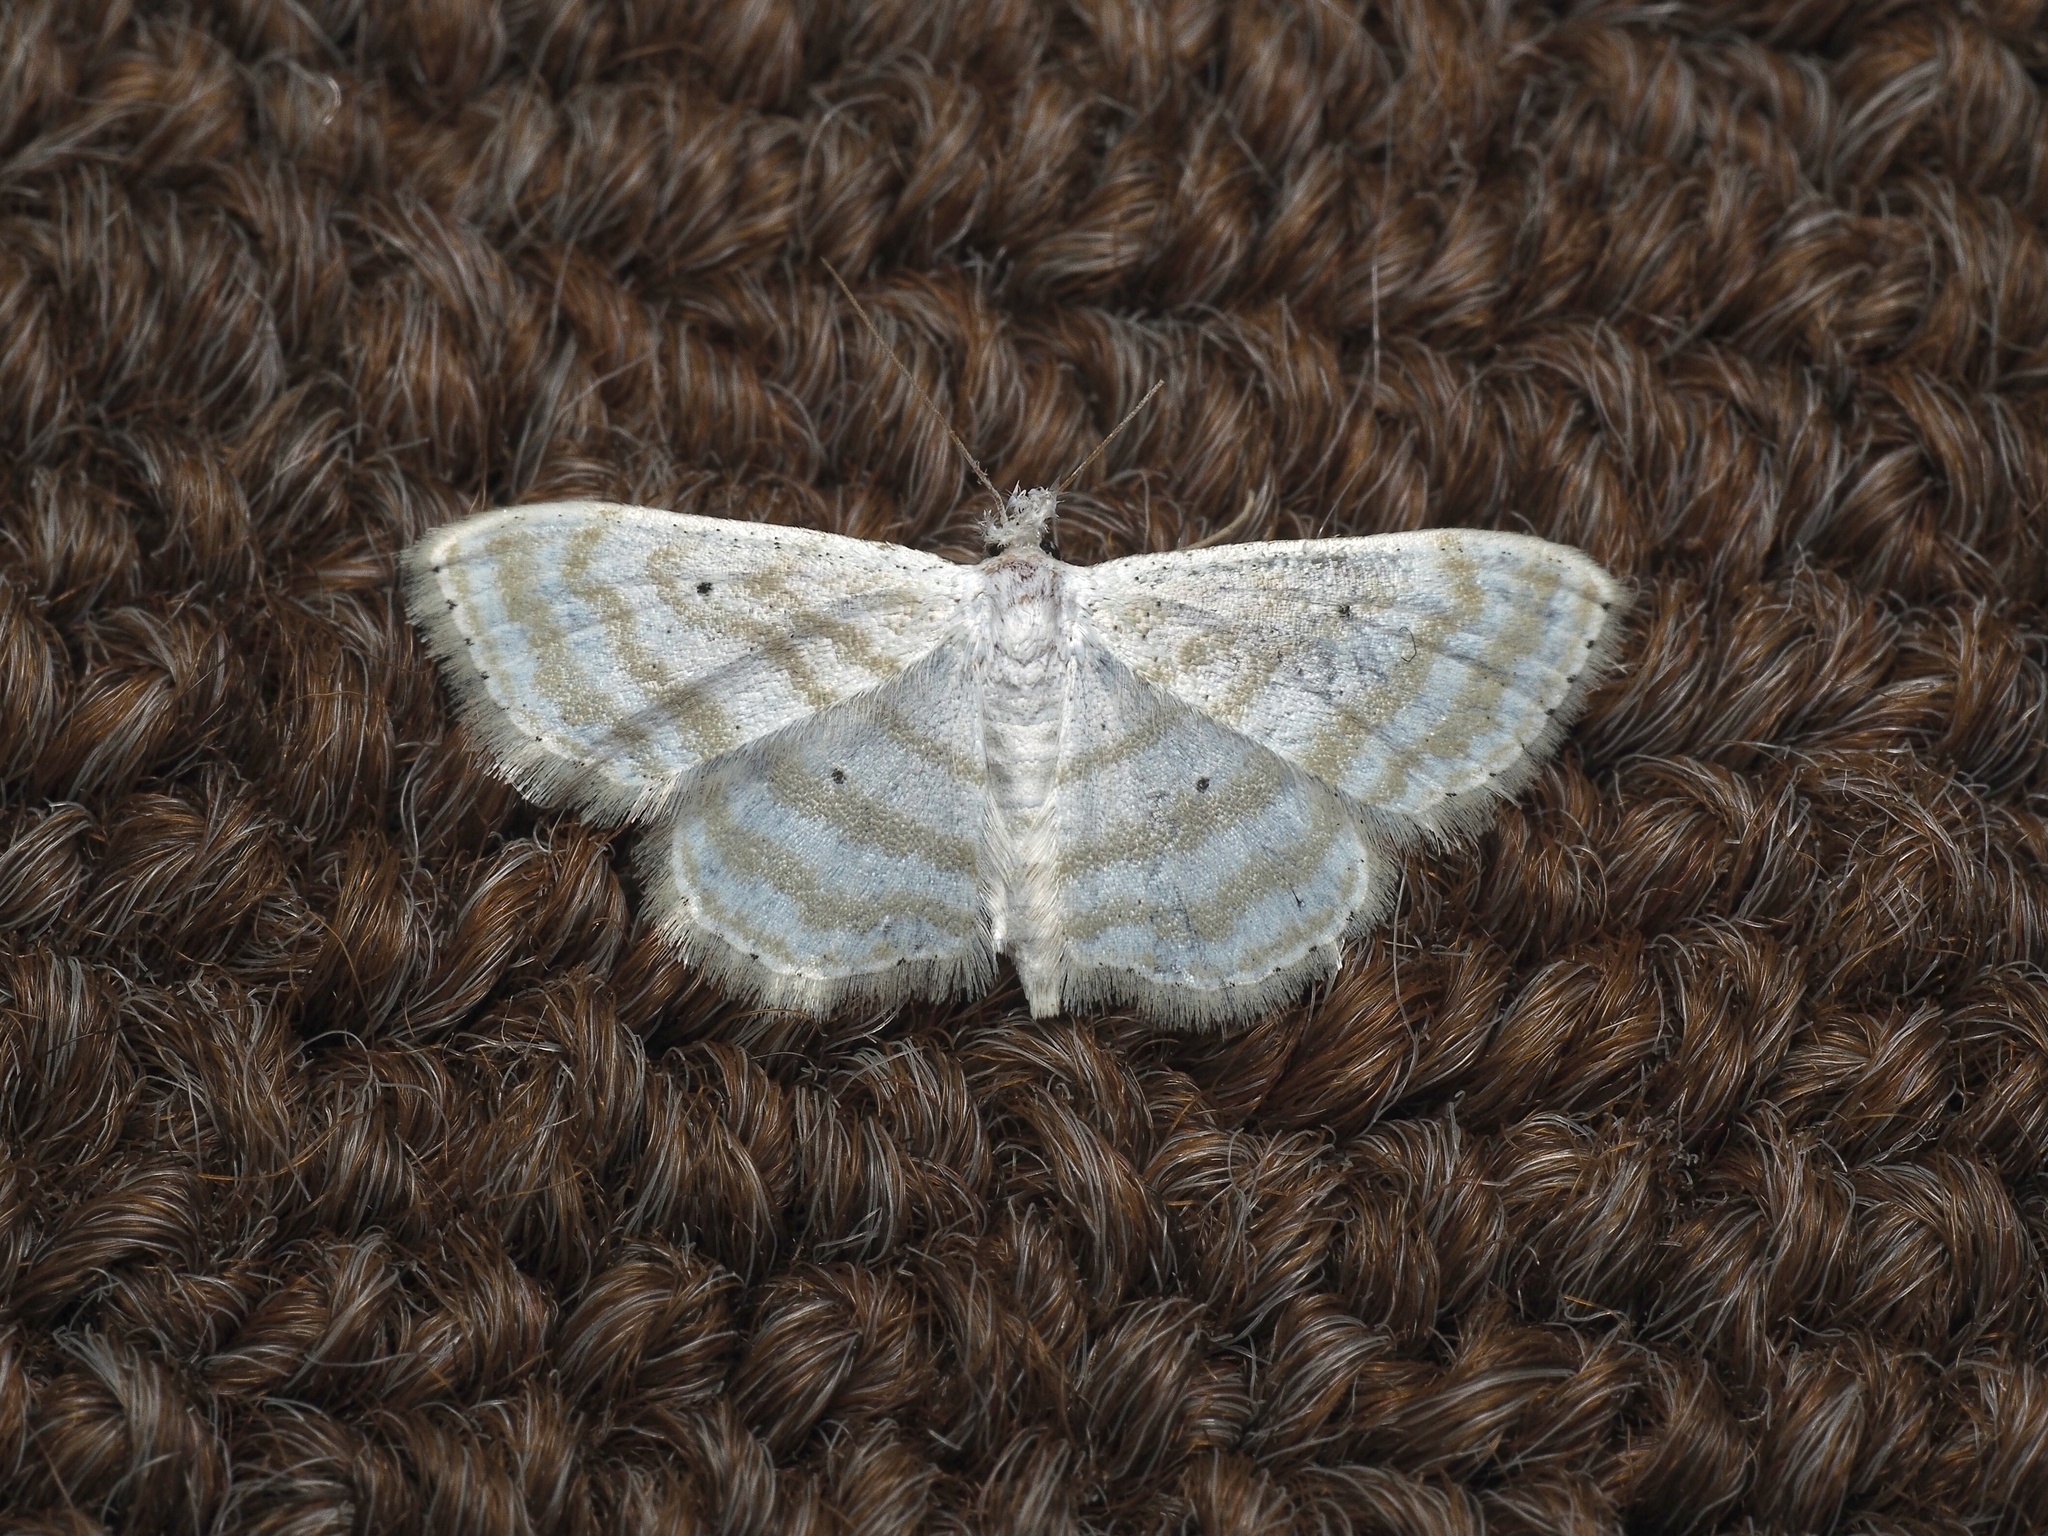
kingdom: Animalia
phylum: Arthropoda
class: Insecta
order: Lepidoptera
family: Geometridae
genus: Scopula
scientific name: Scopula penultima
